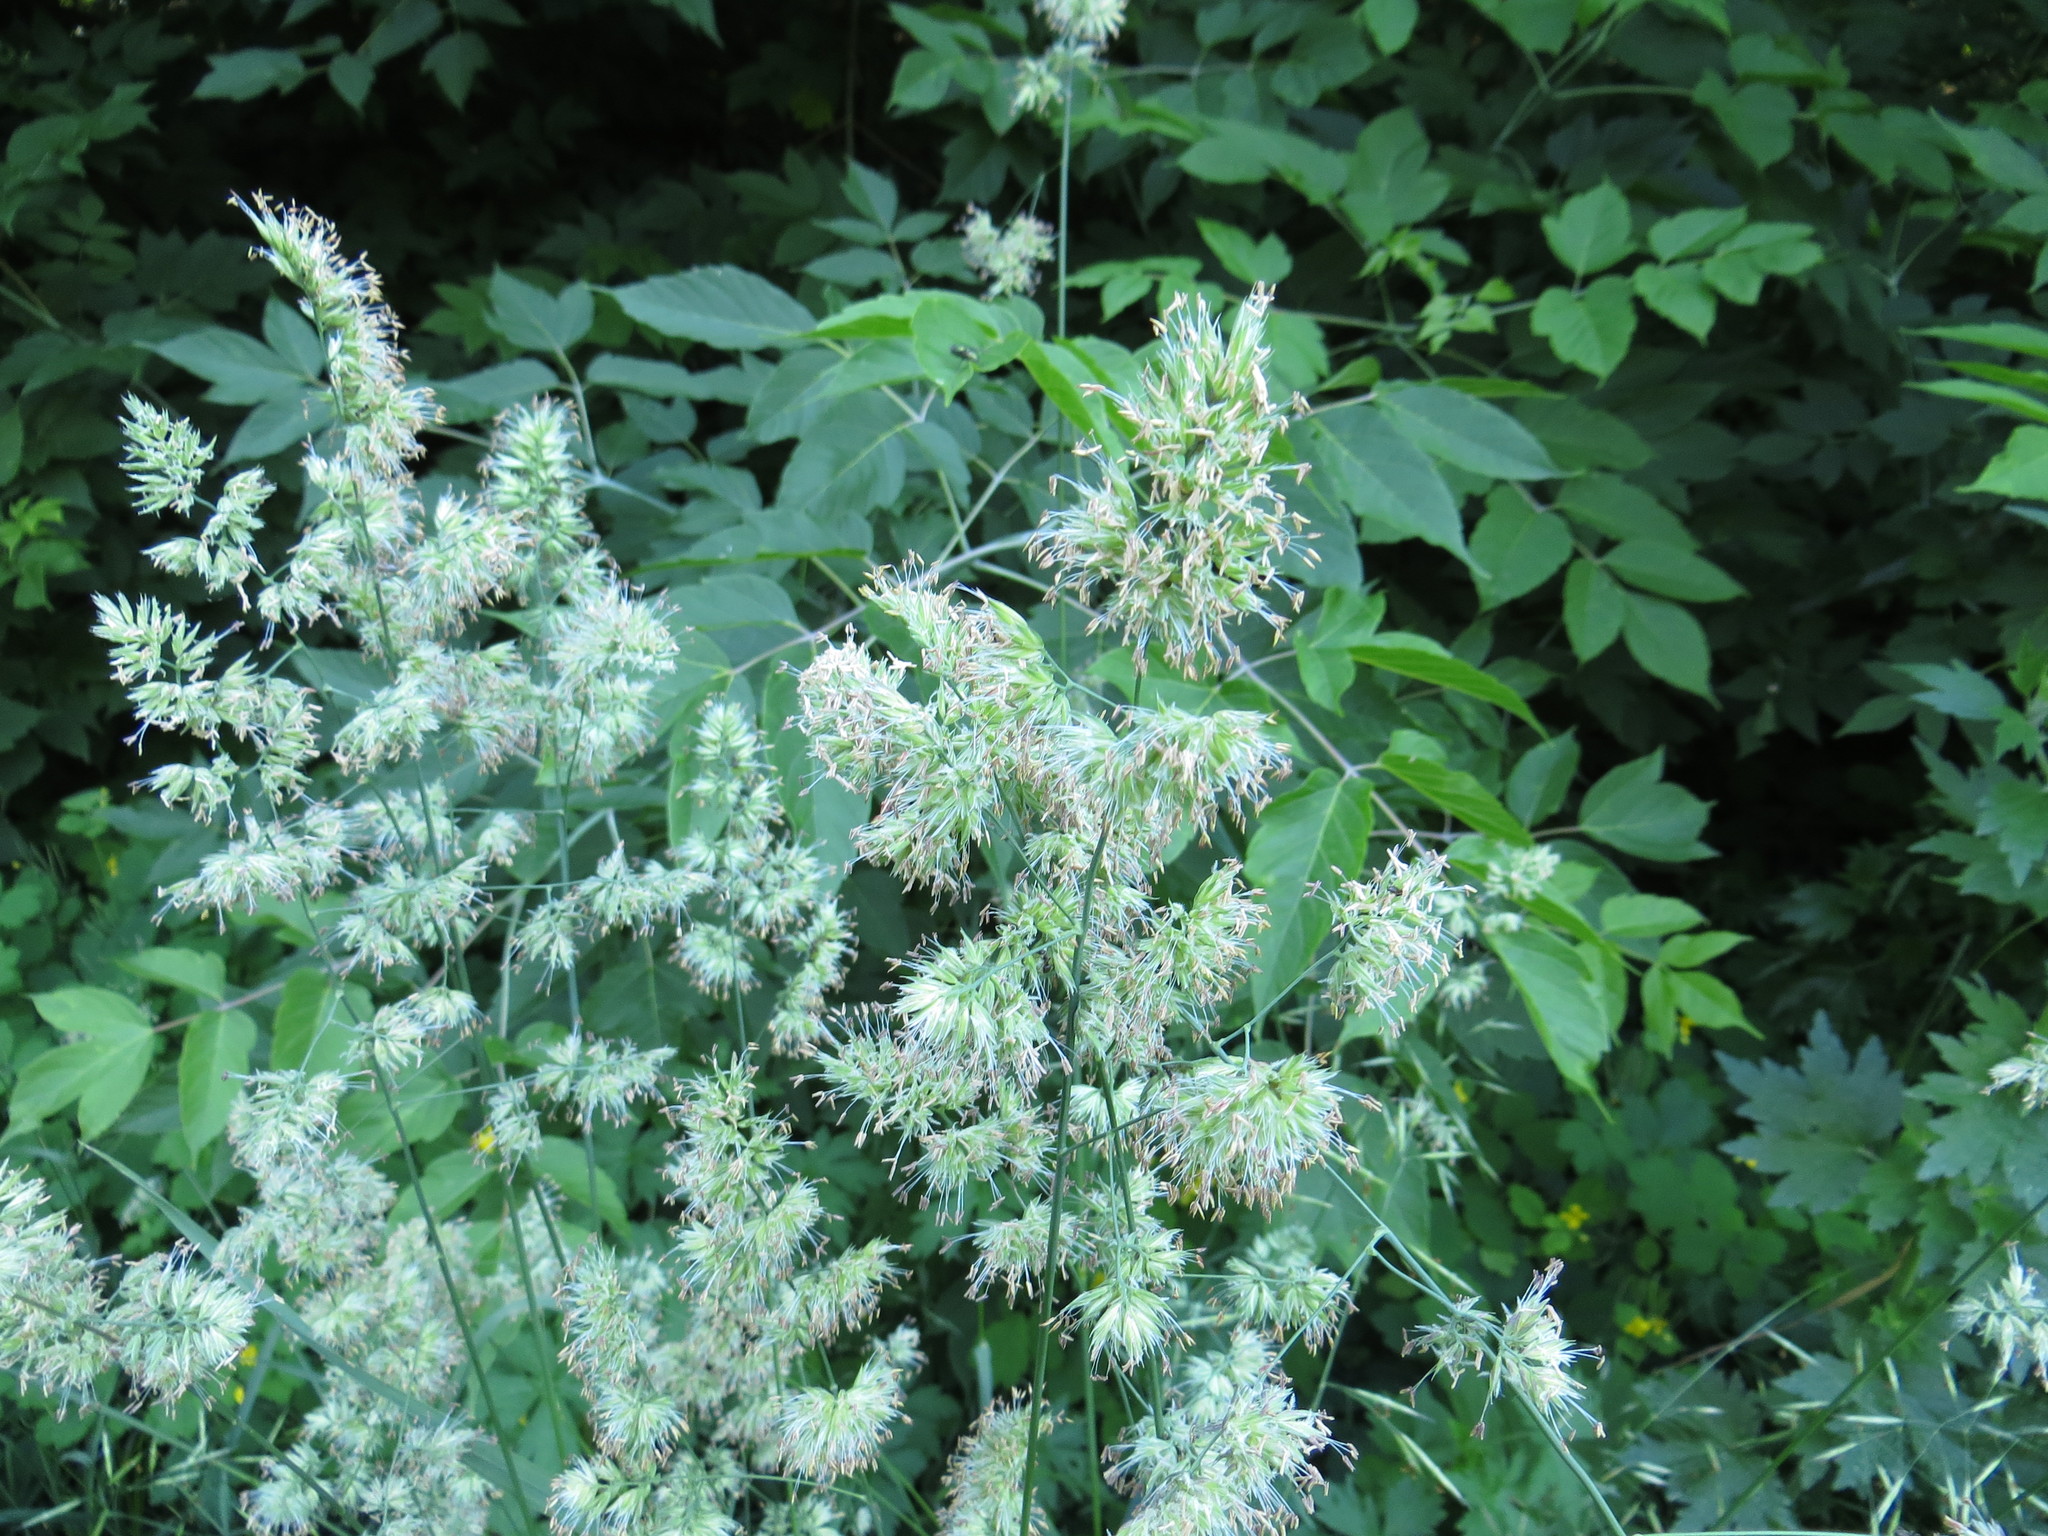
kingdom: Plantae
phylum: Tracheophyta
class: Liliopsida
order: Poales
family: Poaceae
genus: Dactylis
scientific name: Dactylis glomerata
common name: Orchardgrass
